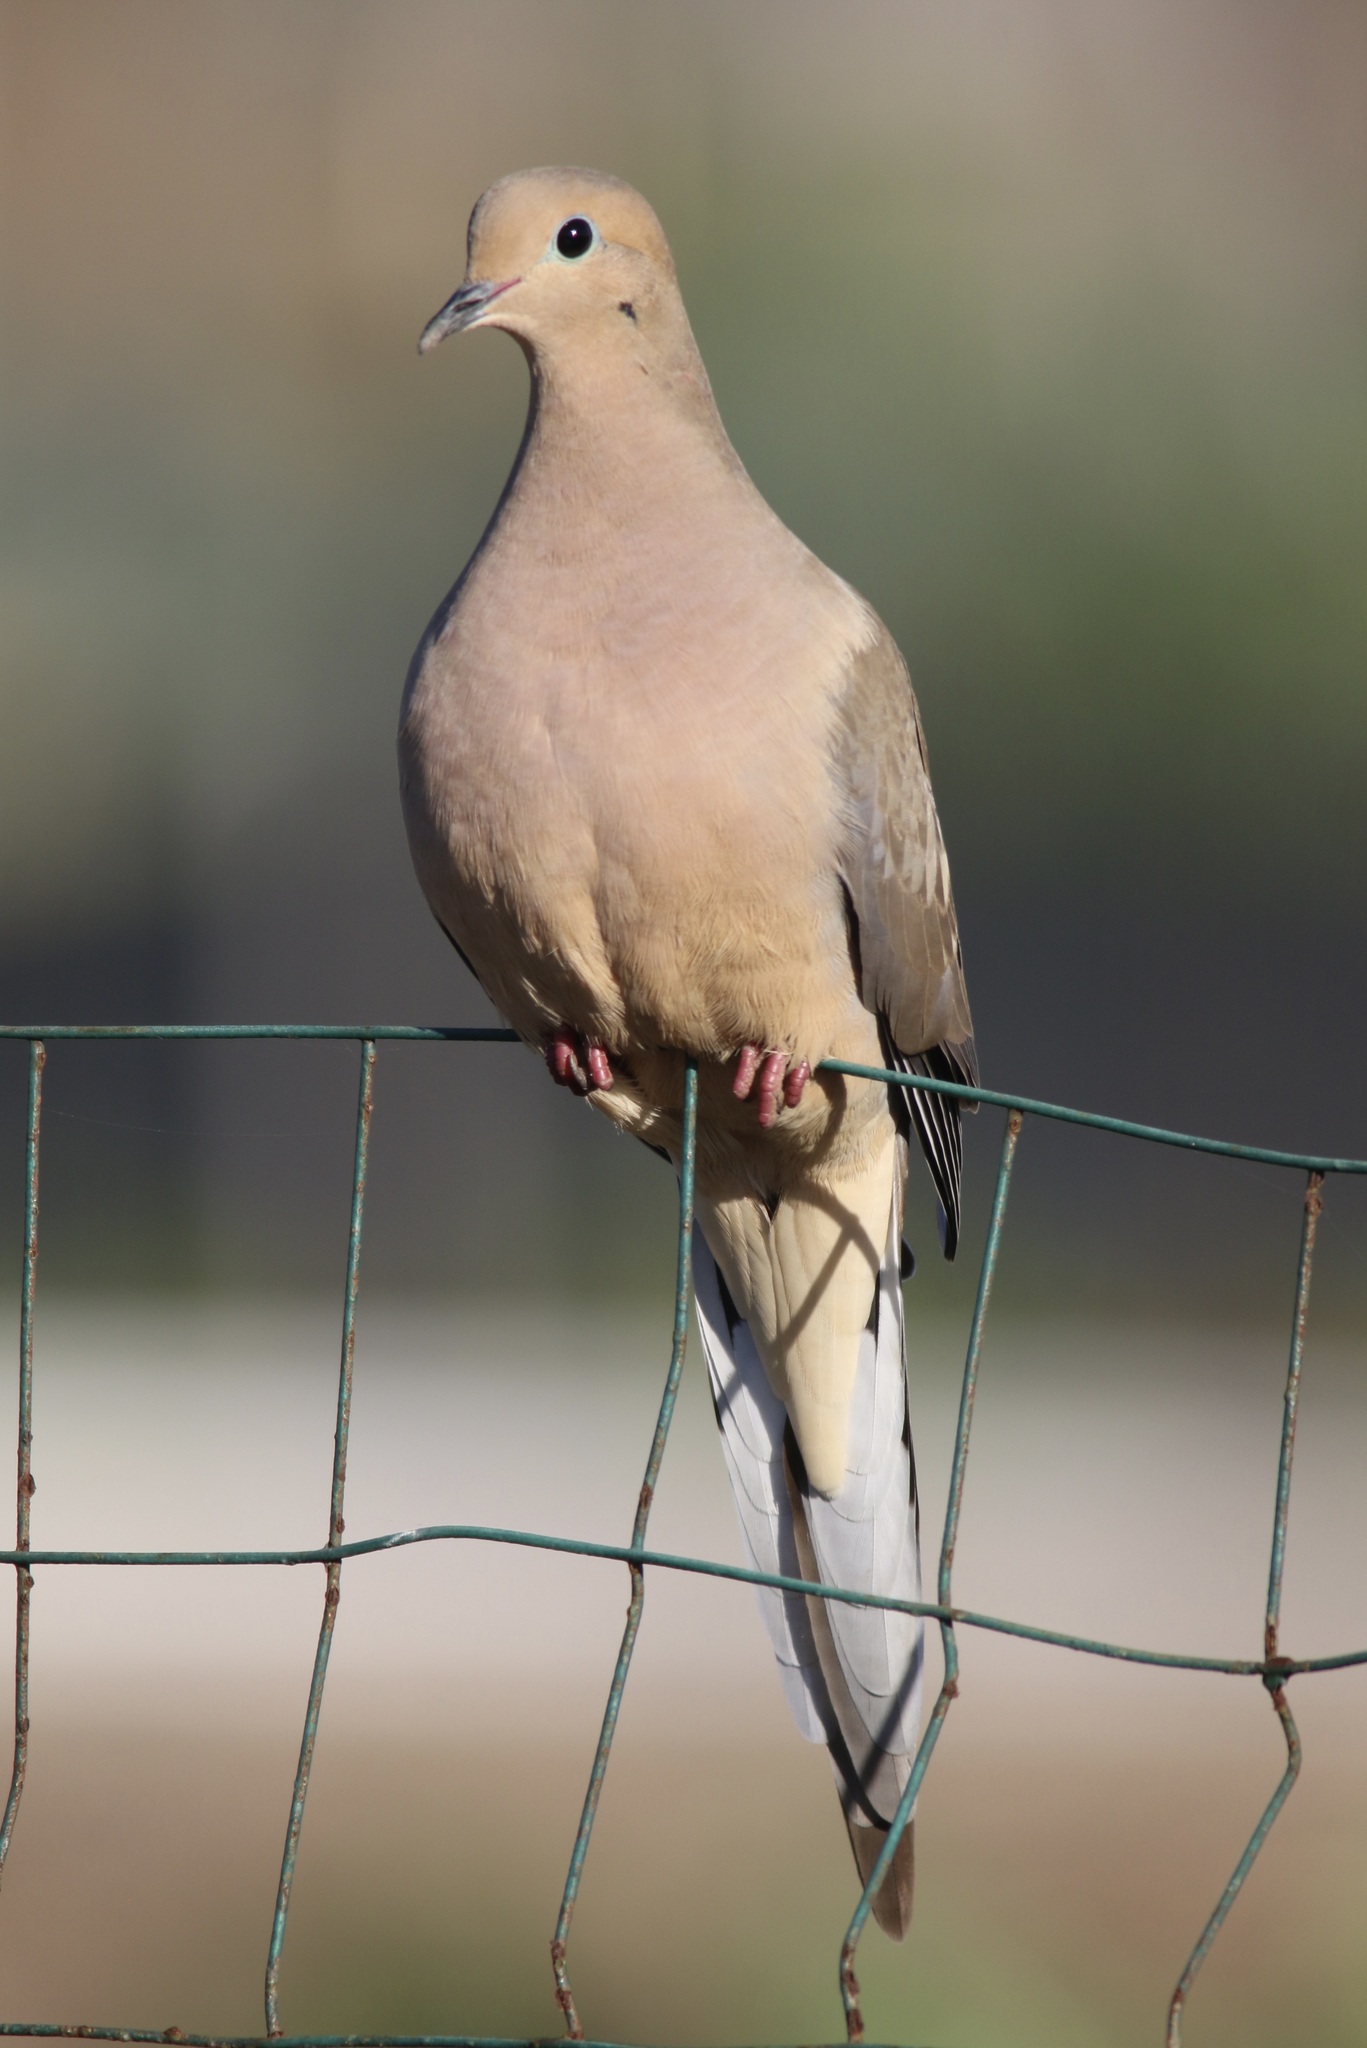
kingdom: Animalia
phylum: Chordata
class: Aves
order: Columbiformes
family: Columbidae
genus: Zenaida
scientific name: Zenaida macroura
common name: Mourning dove
